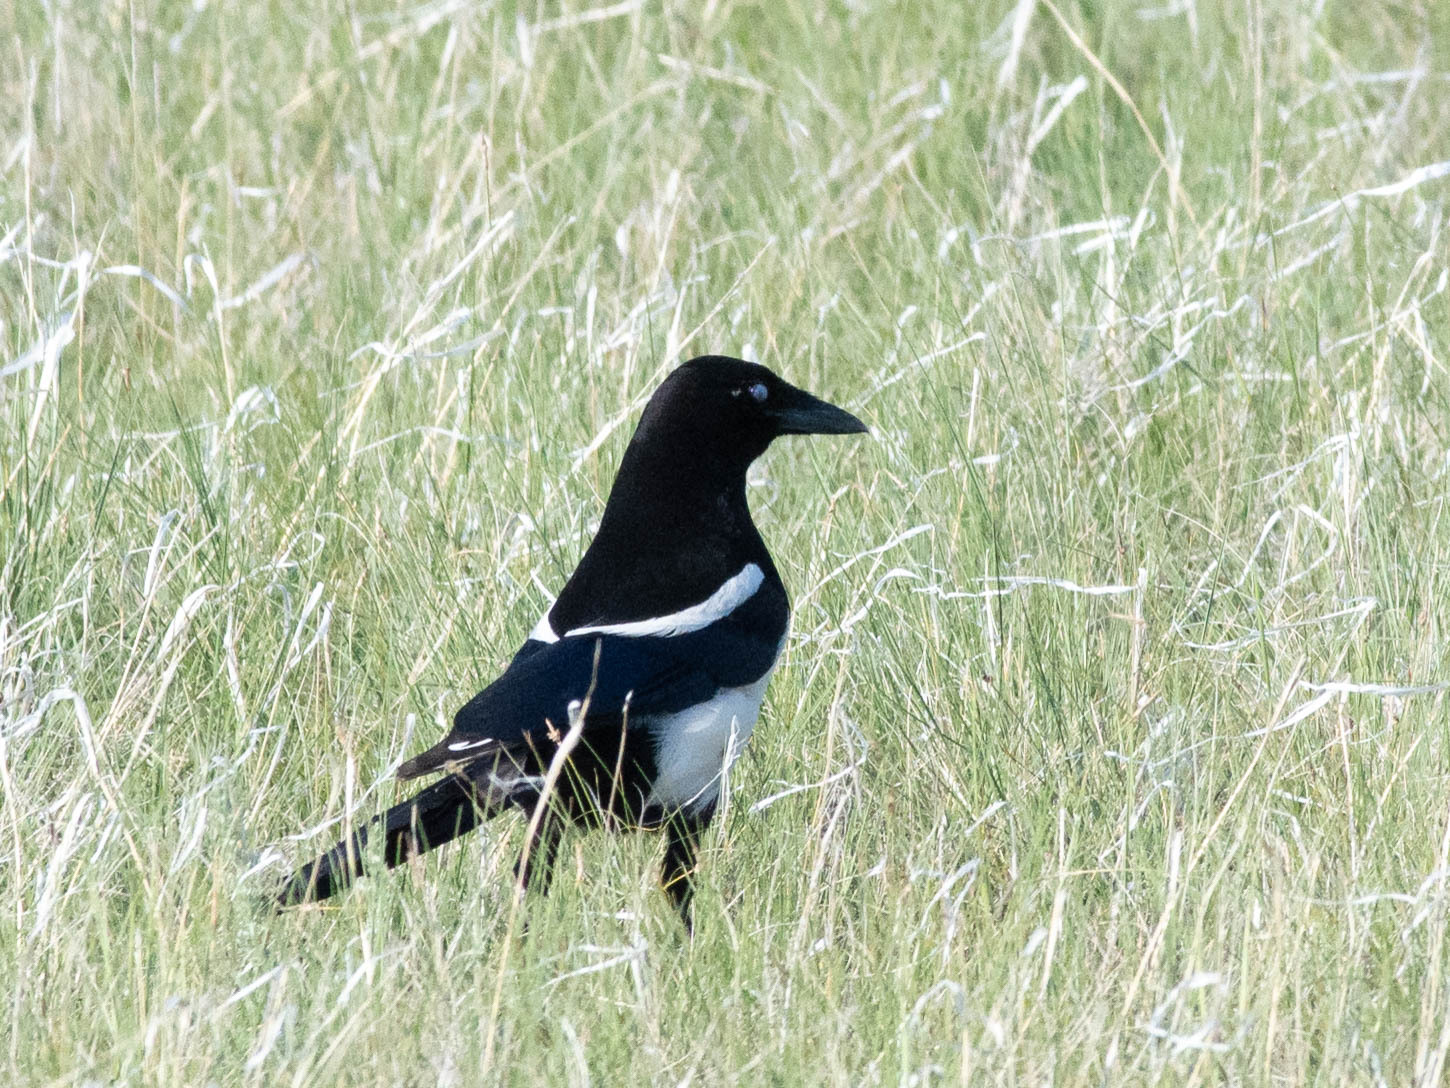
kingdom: Animalia
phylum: Chordata
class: Aves
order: Passeriformes
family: Corvidae
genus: Pica
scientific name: Pica hudsonia
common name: Black-billed magpie
